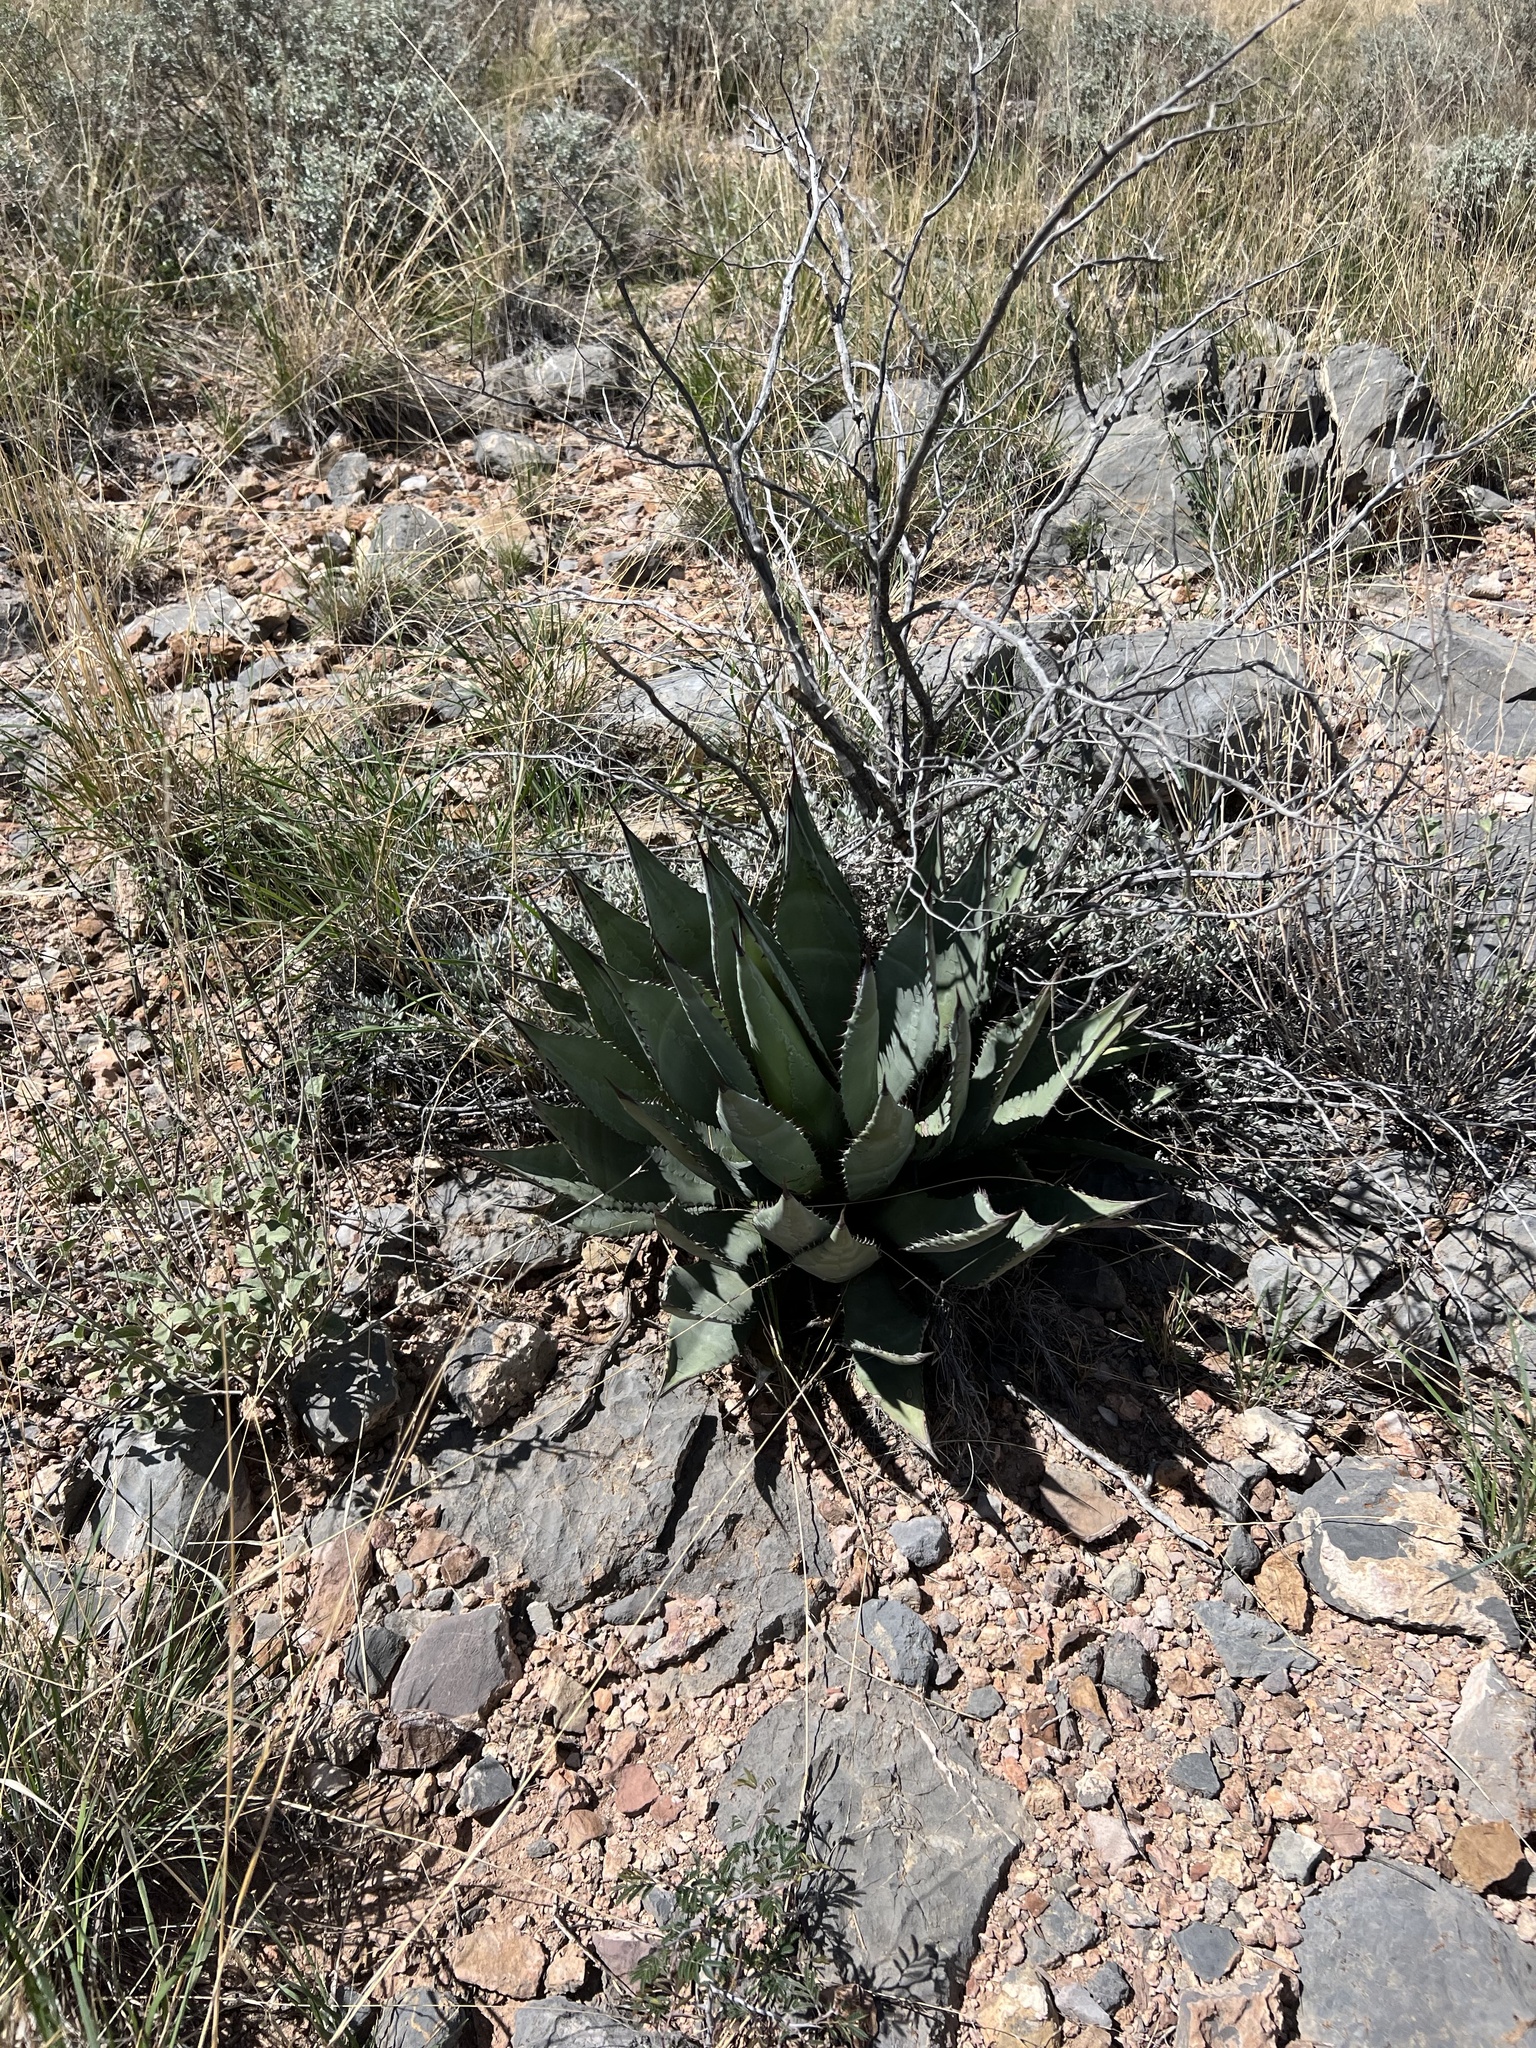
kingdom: Plantae
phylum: Tracheophyta
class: Liliopsida
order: Asparagales
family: Asparagaceae
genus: Agave
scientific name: Agave palmeri
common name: Palmer agave
